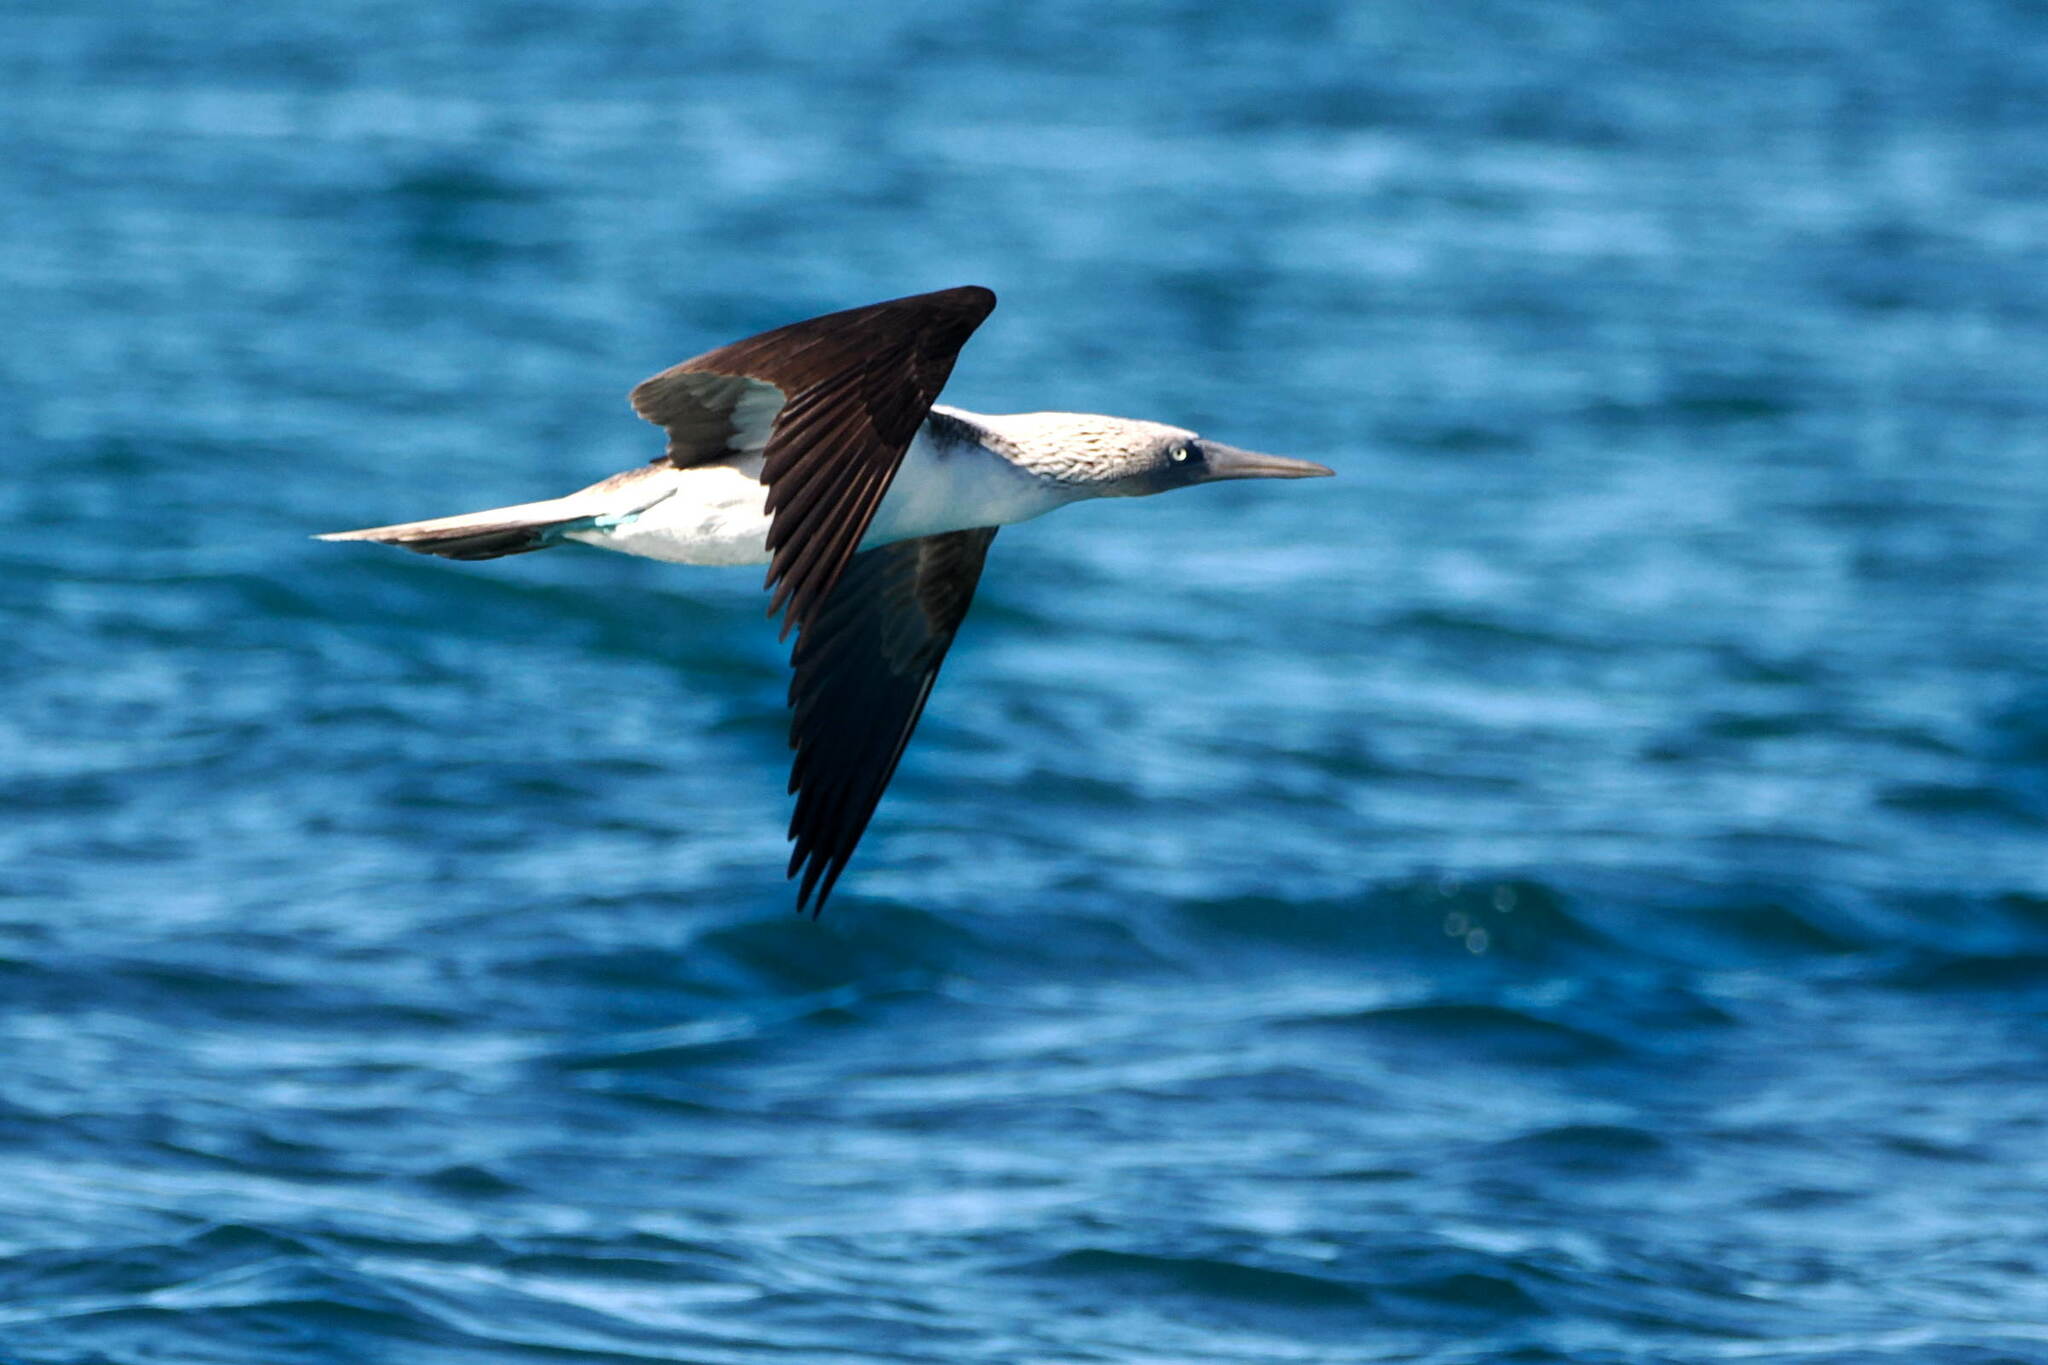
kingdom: Animalia
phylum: Chordata
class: Aves
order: Suliformes
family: Sulidae
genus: Sula
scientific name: Sula nebouxii
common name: Blue-footed booby
